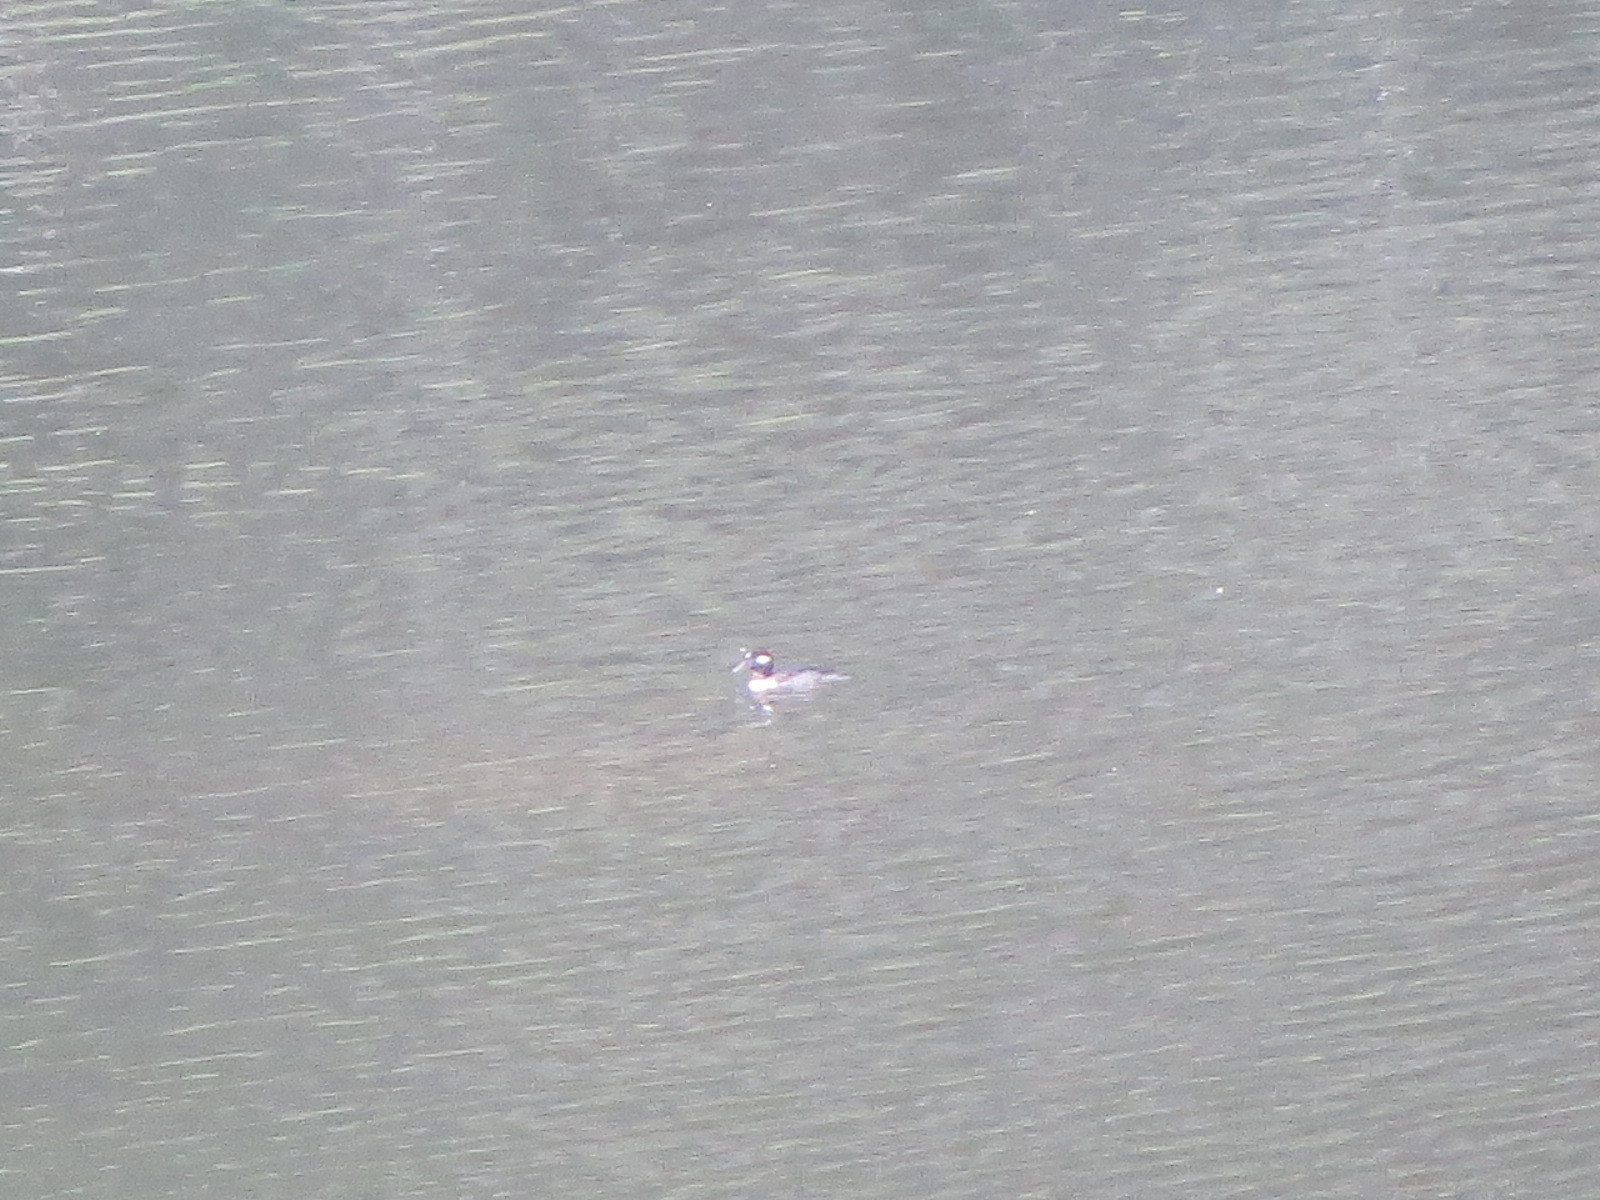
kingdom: Animalia
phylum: Chordata
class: Aves
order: Anseriformes
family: Anatidae
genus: Bucephala
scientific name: Bucephala albeola
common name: Bufflehead
